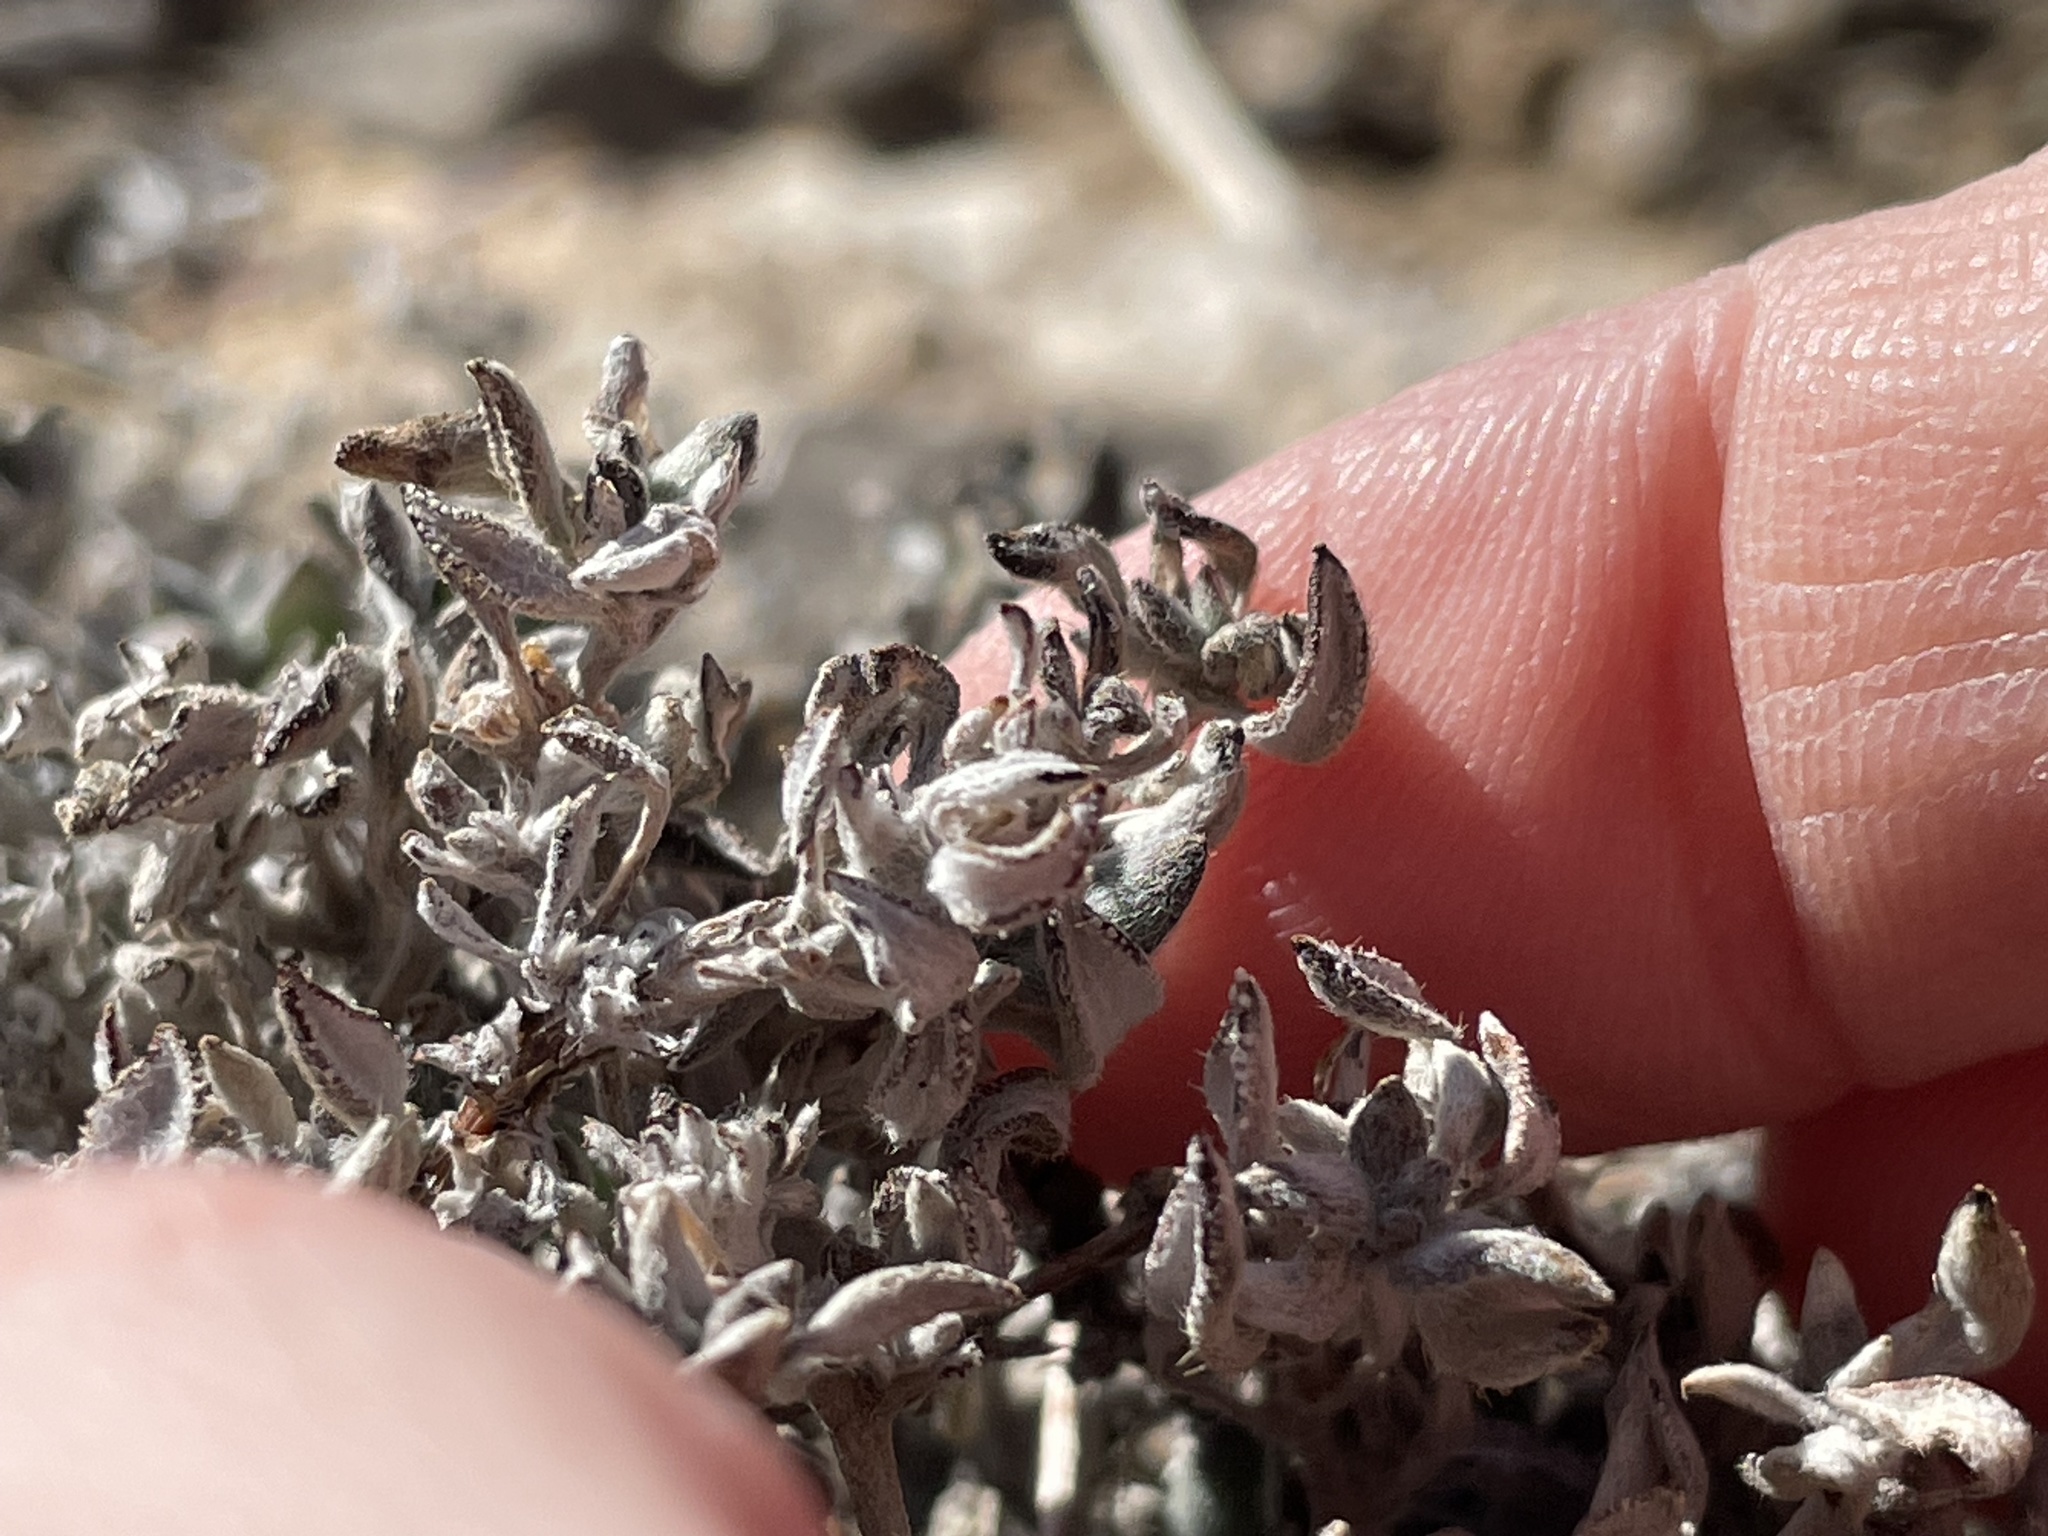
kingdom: Plantae
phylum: Tracheophyta
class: Magnoliopsida
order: Boraginales
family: Ehretiaceae
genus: Tiquilia
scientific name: Tiquilia canescens
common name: Hairy tiquilia
